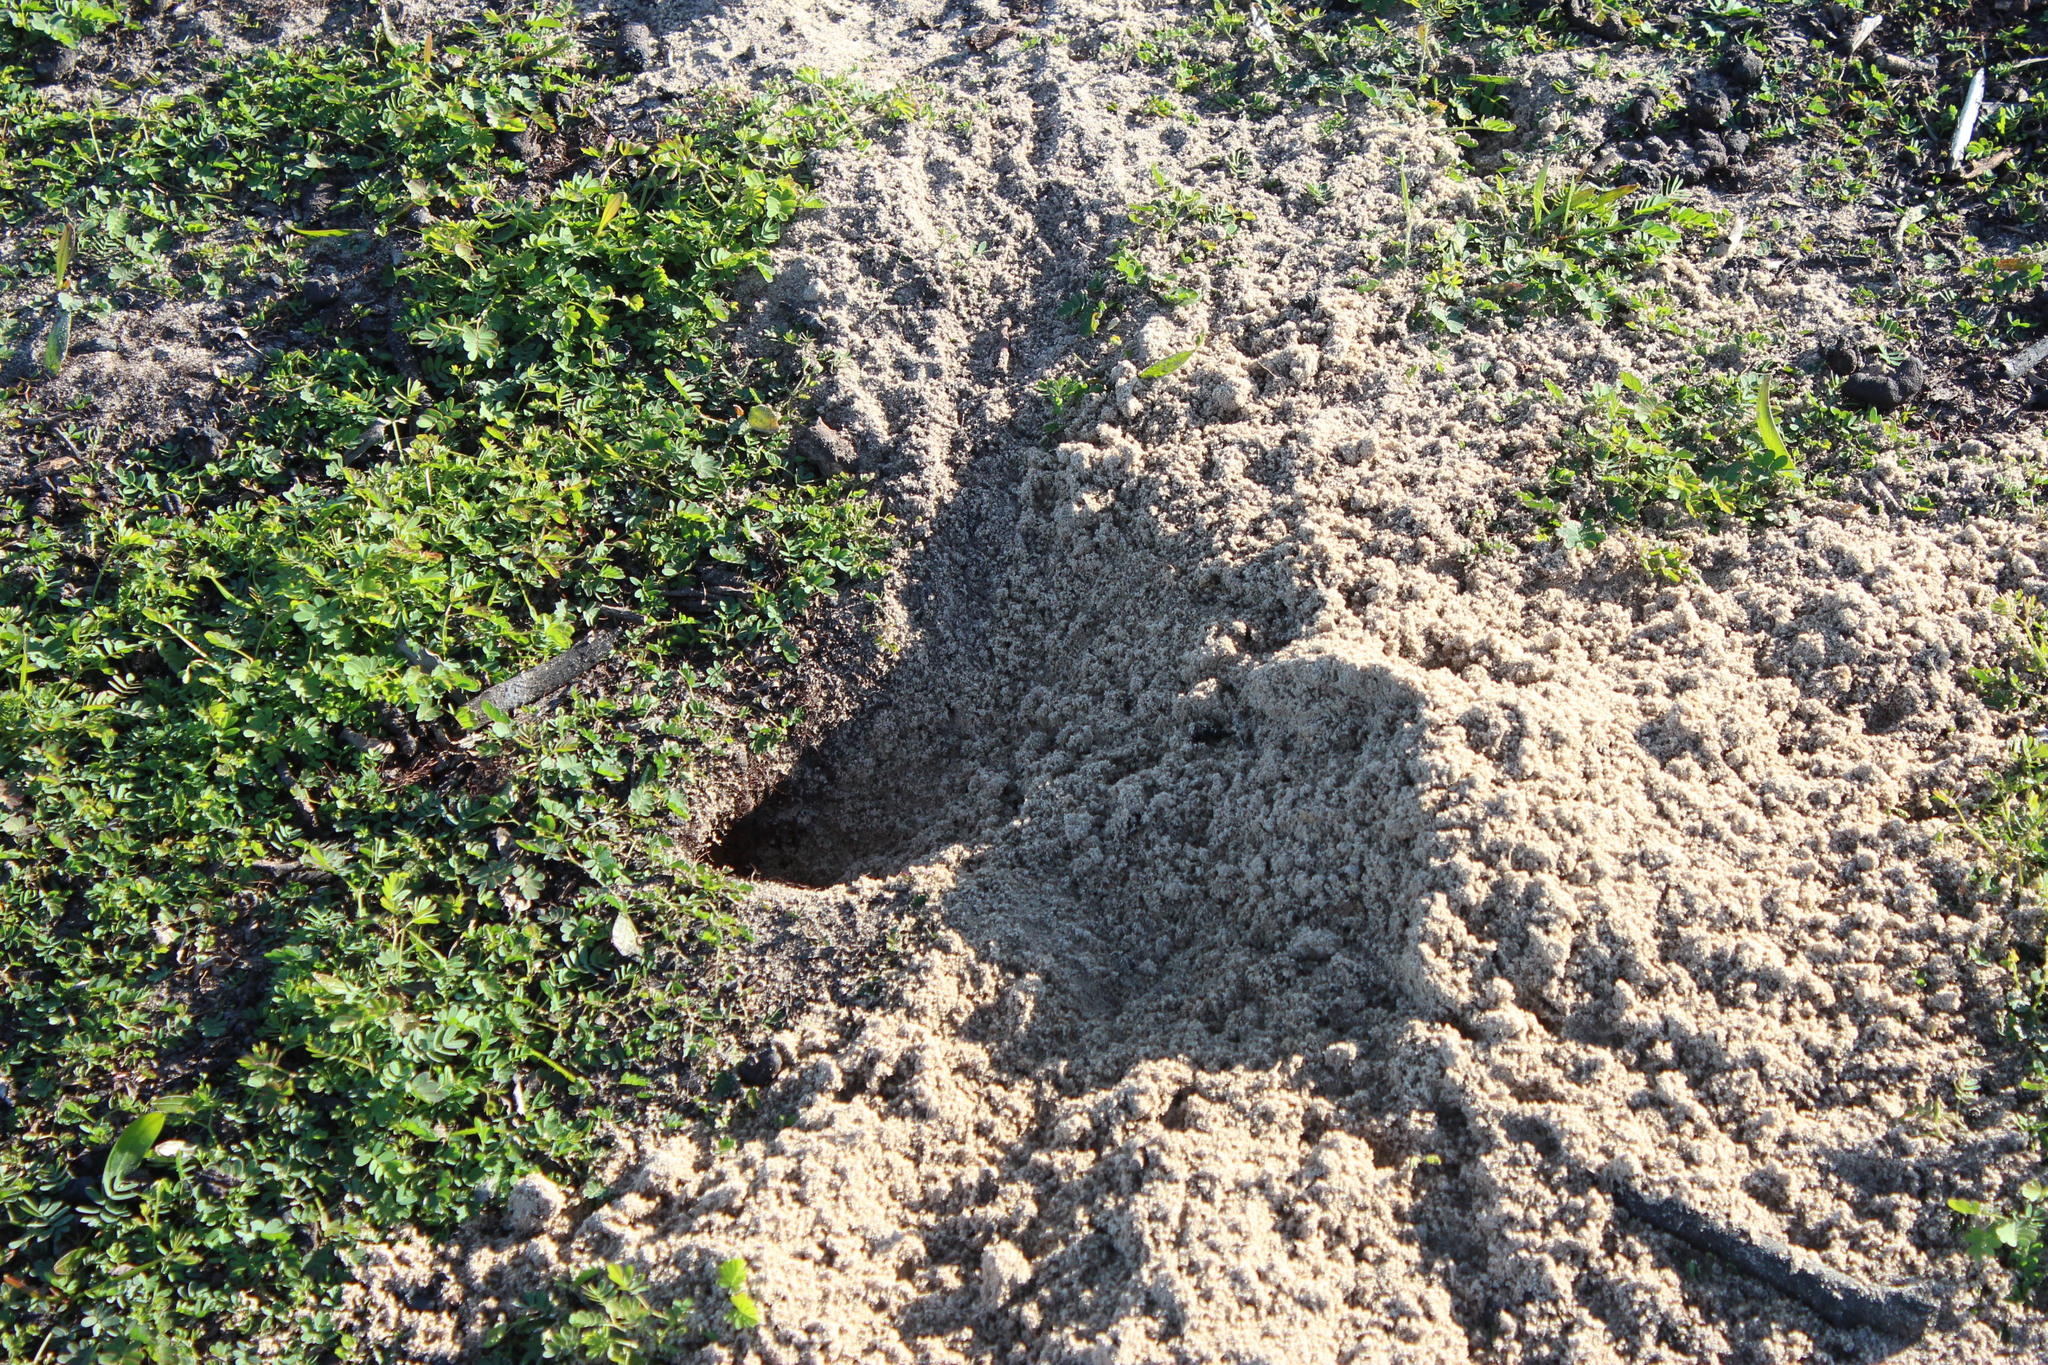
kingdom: Animalia
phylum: Chordata
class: Mammalia
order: Rodentia
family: Muridae
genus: Gerbilliscus
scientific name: Gerbilliscus afer
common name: Cape gerbil
